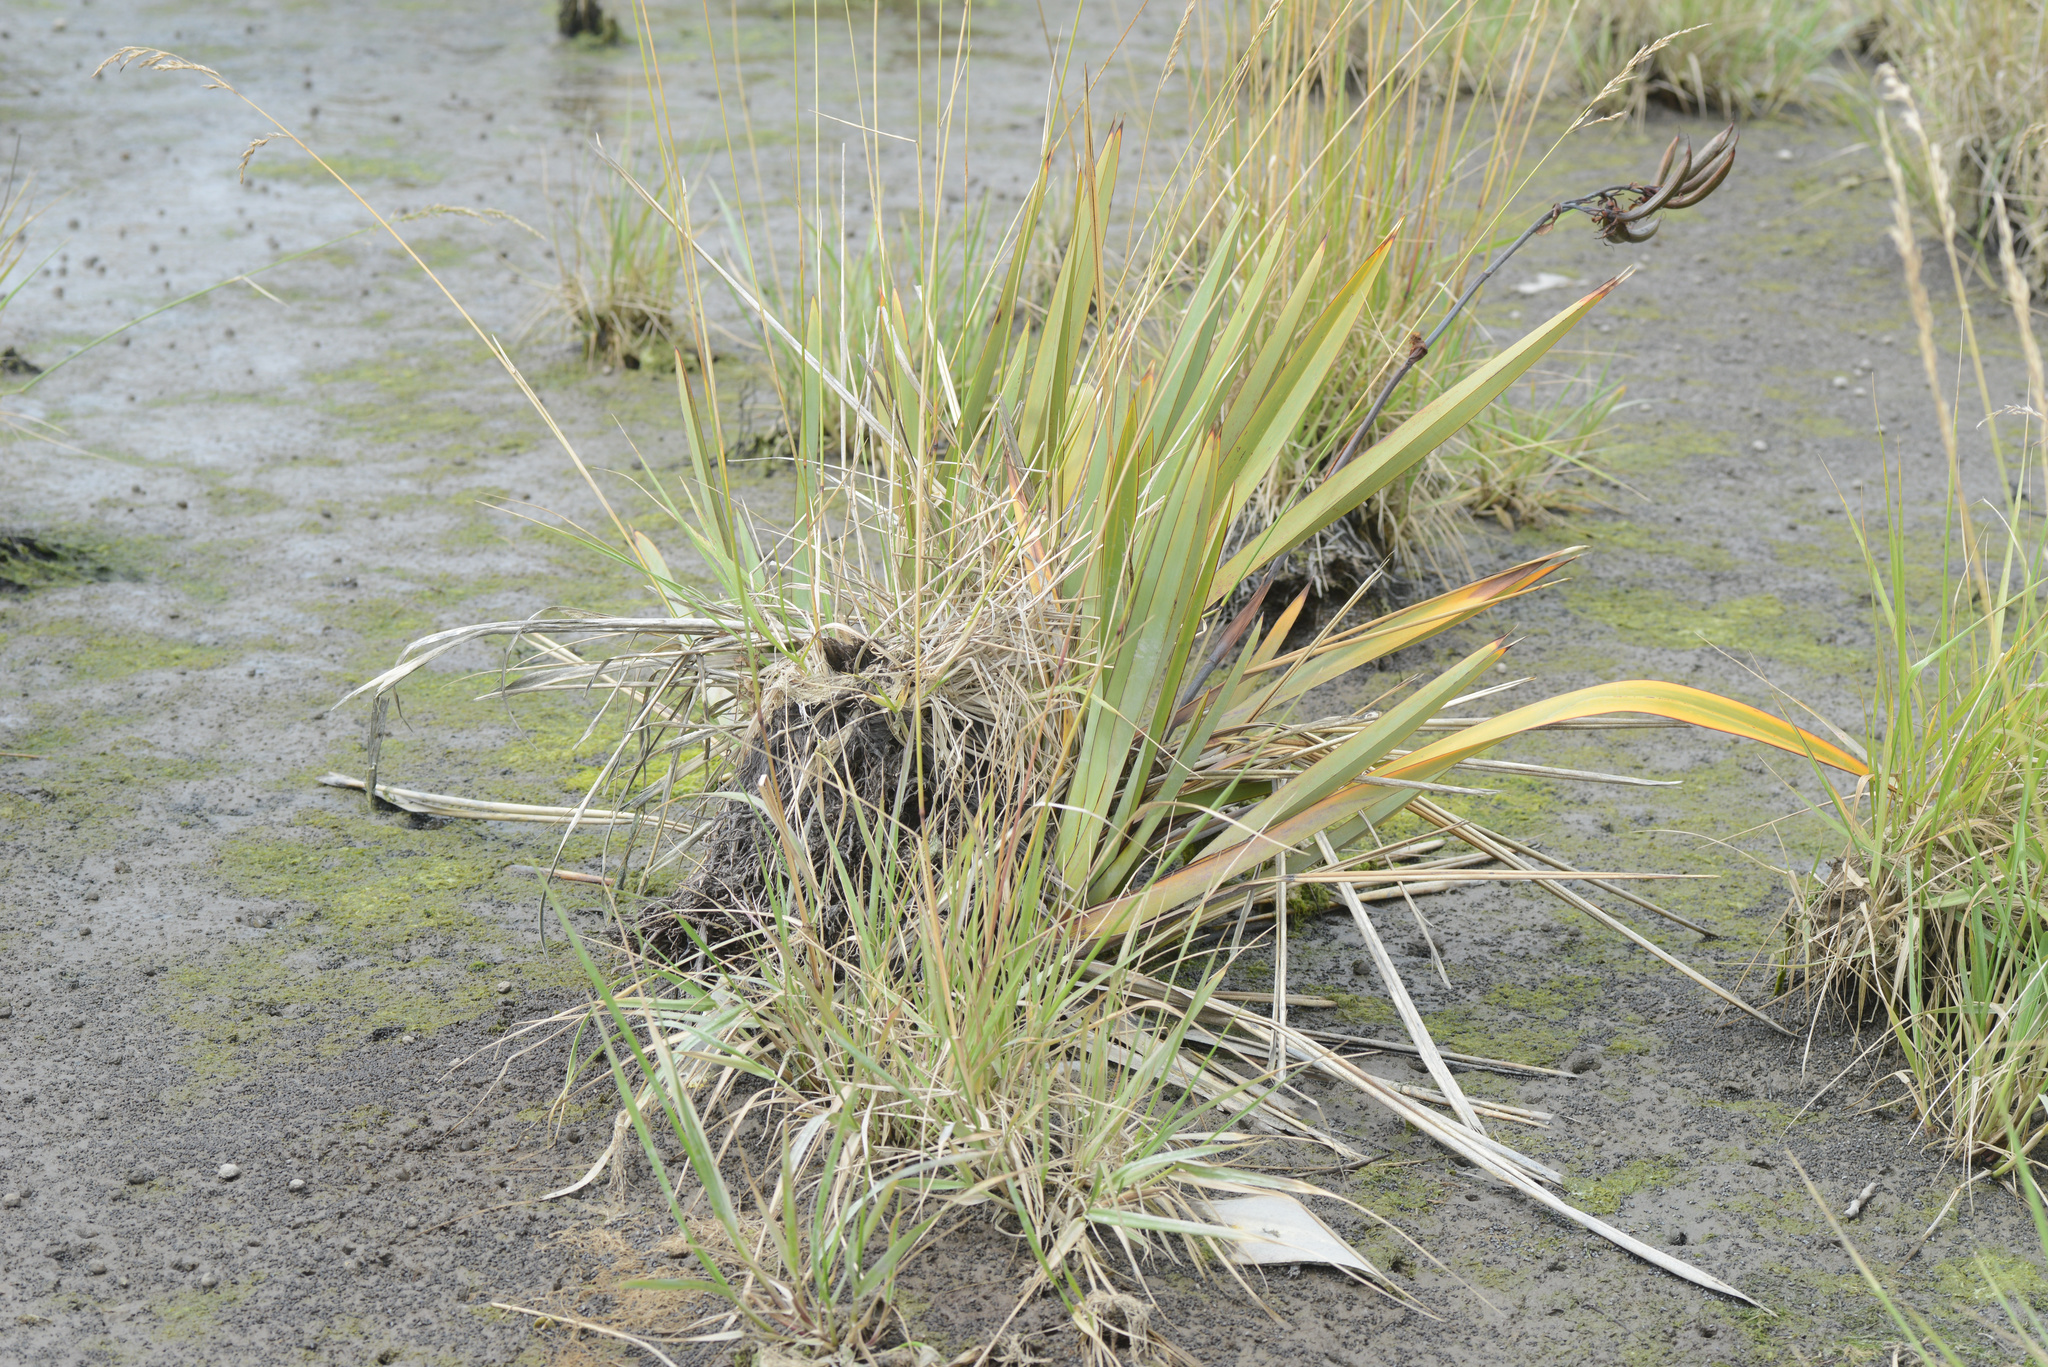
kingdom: Plantae
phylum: Tracheophyta
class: Liliopsida
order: Asparagales
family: Asphodelaceae
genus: Phormium
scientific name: Phormium tenax
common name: New zealand flax
